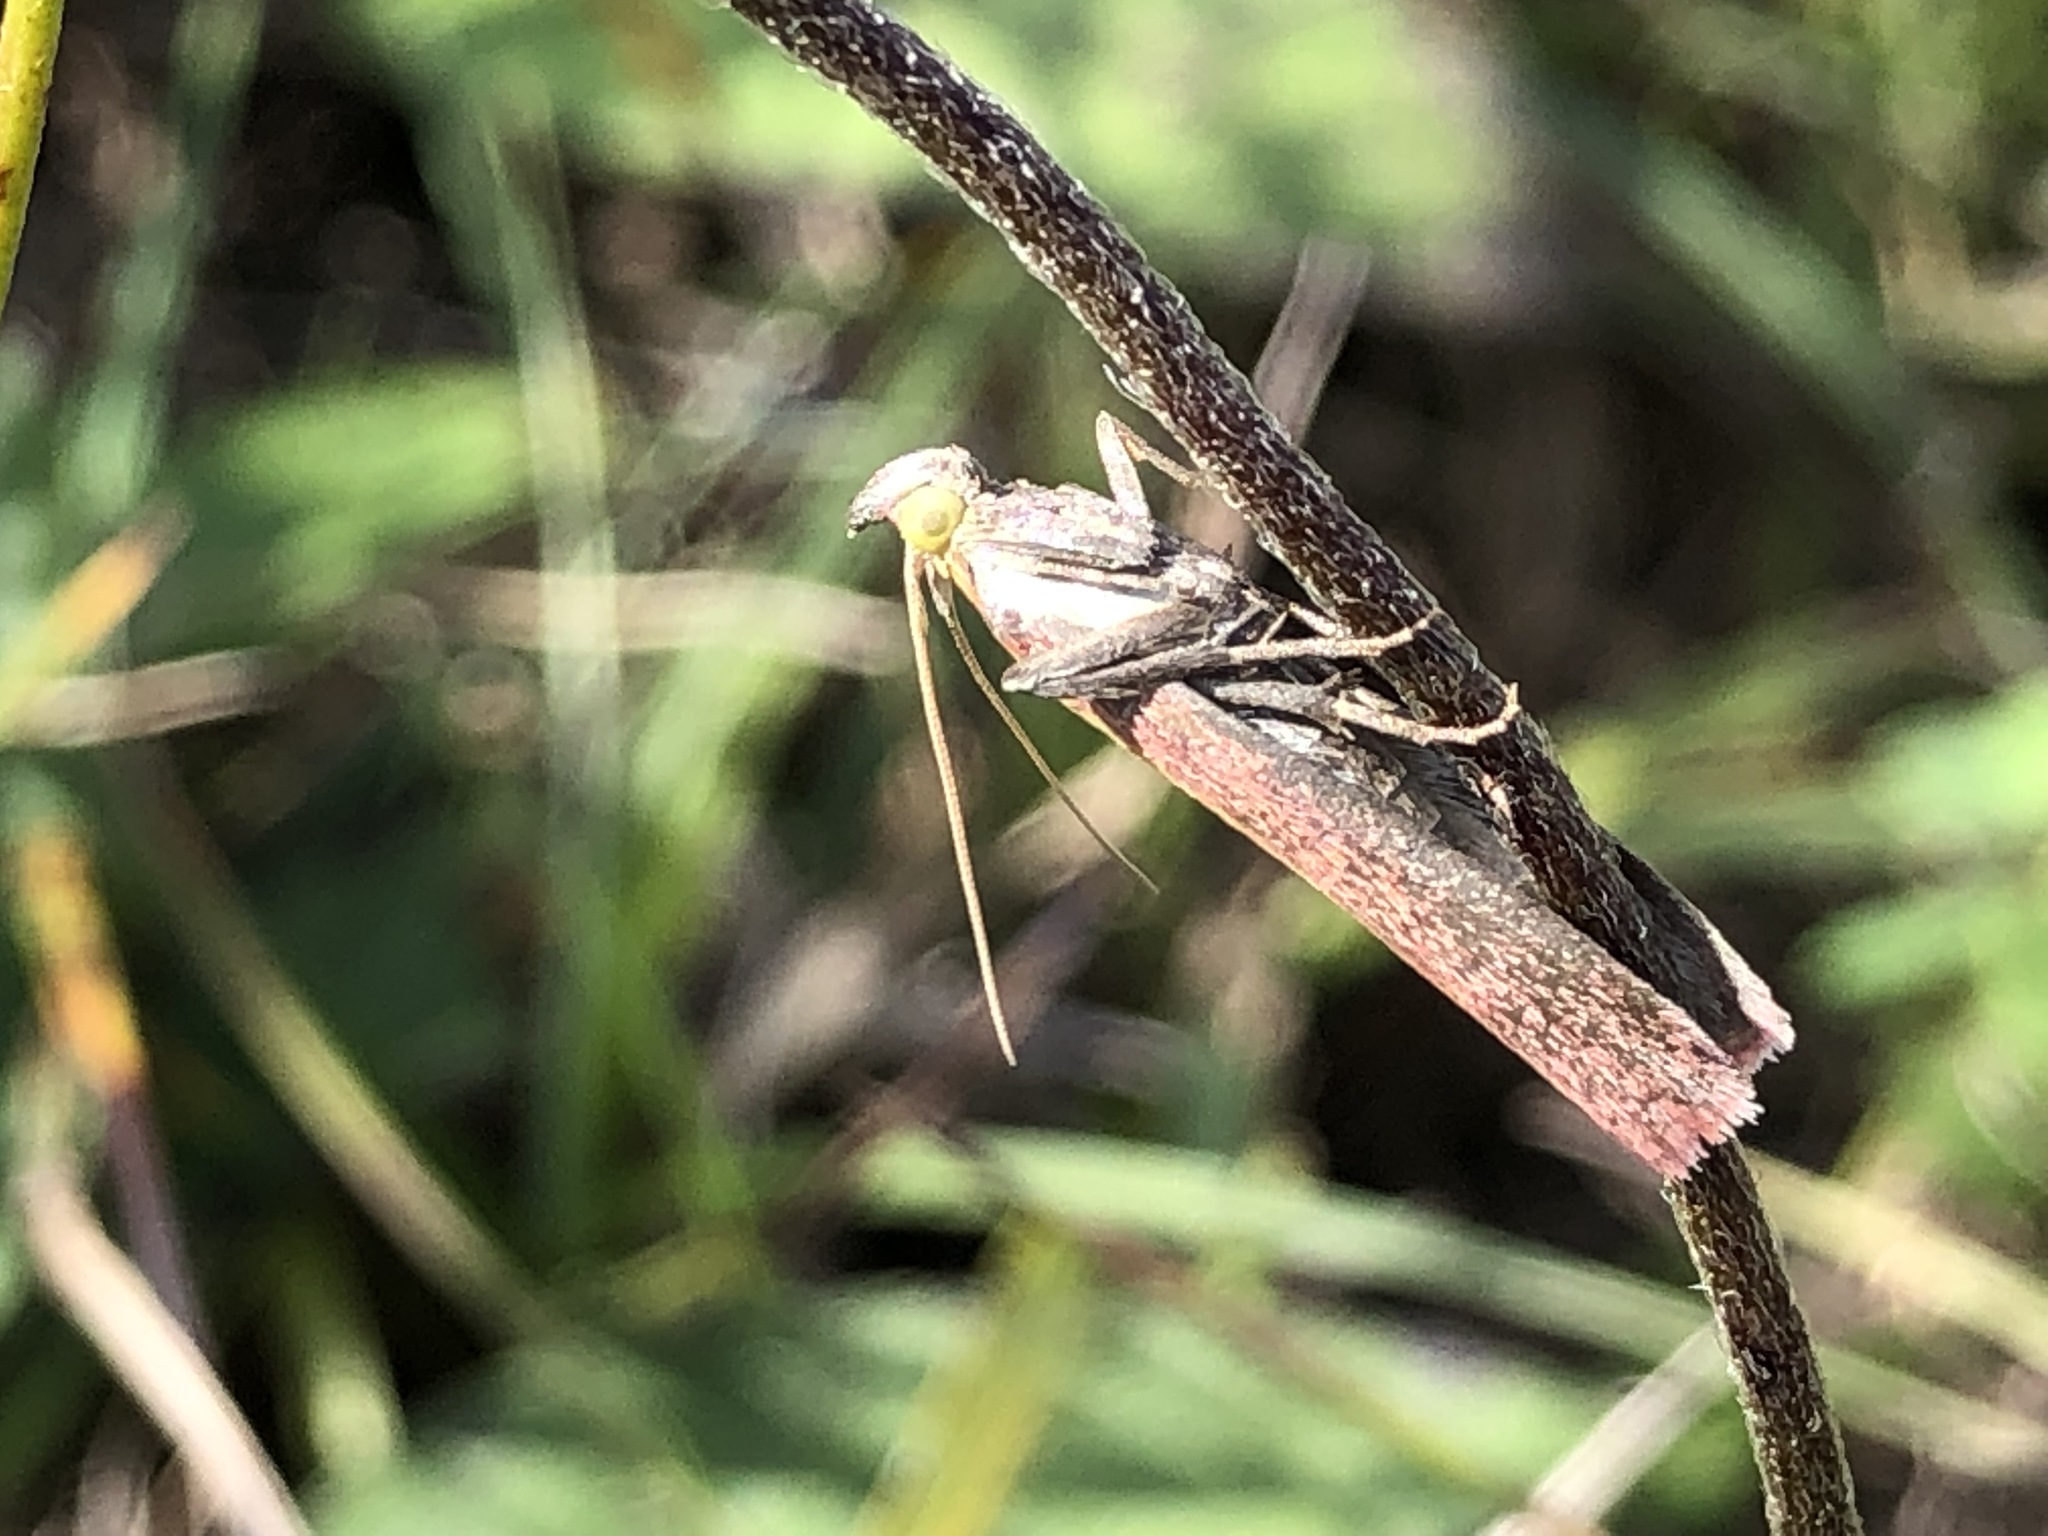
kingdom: Animalia
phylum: Arthropoda
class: Insecta
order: Lepidoptera
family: Pyralidae
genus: Oncocera
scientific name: Oncocera semirubella
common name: Rosy-striped knot-horn
